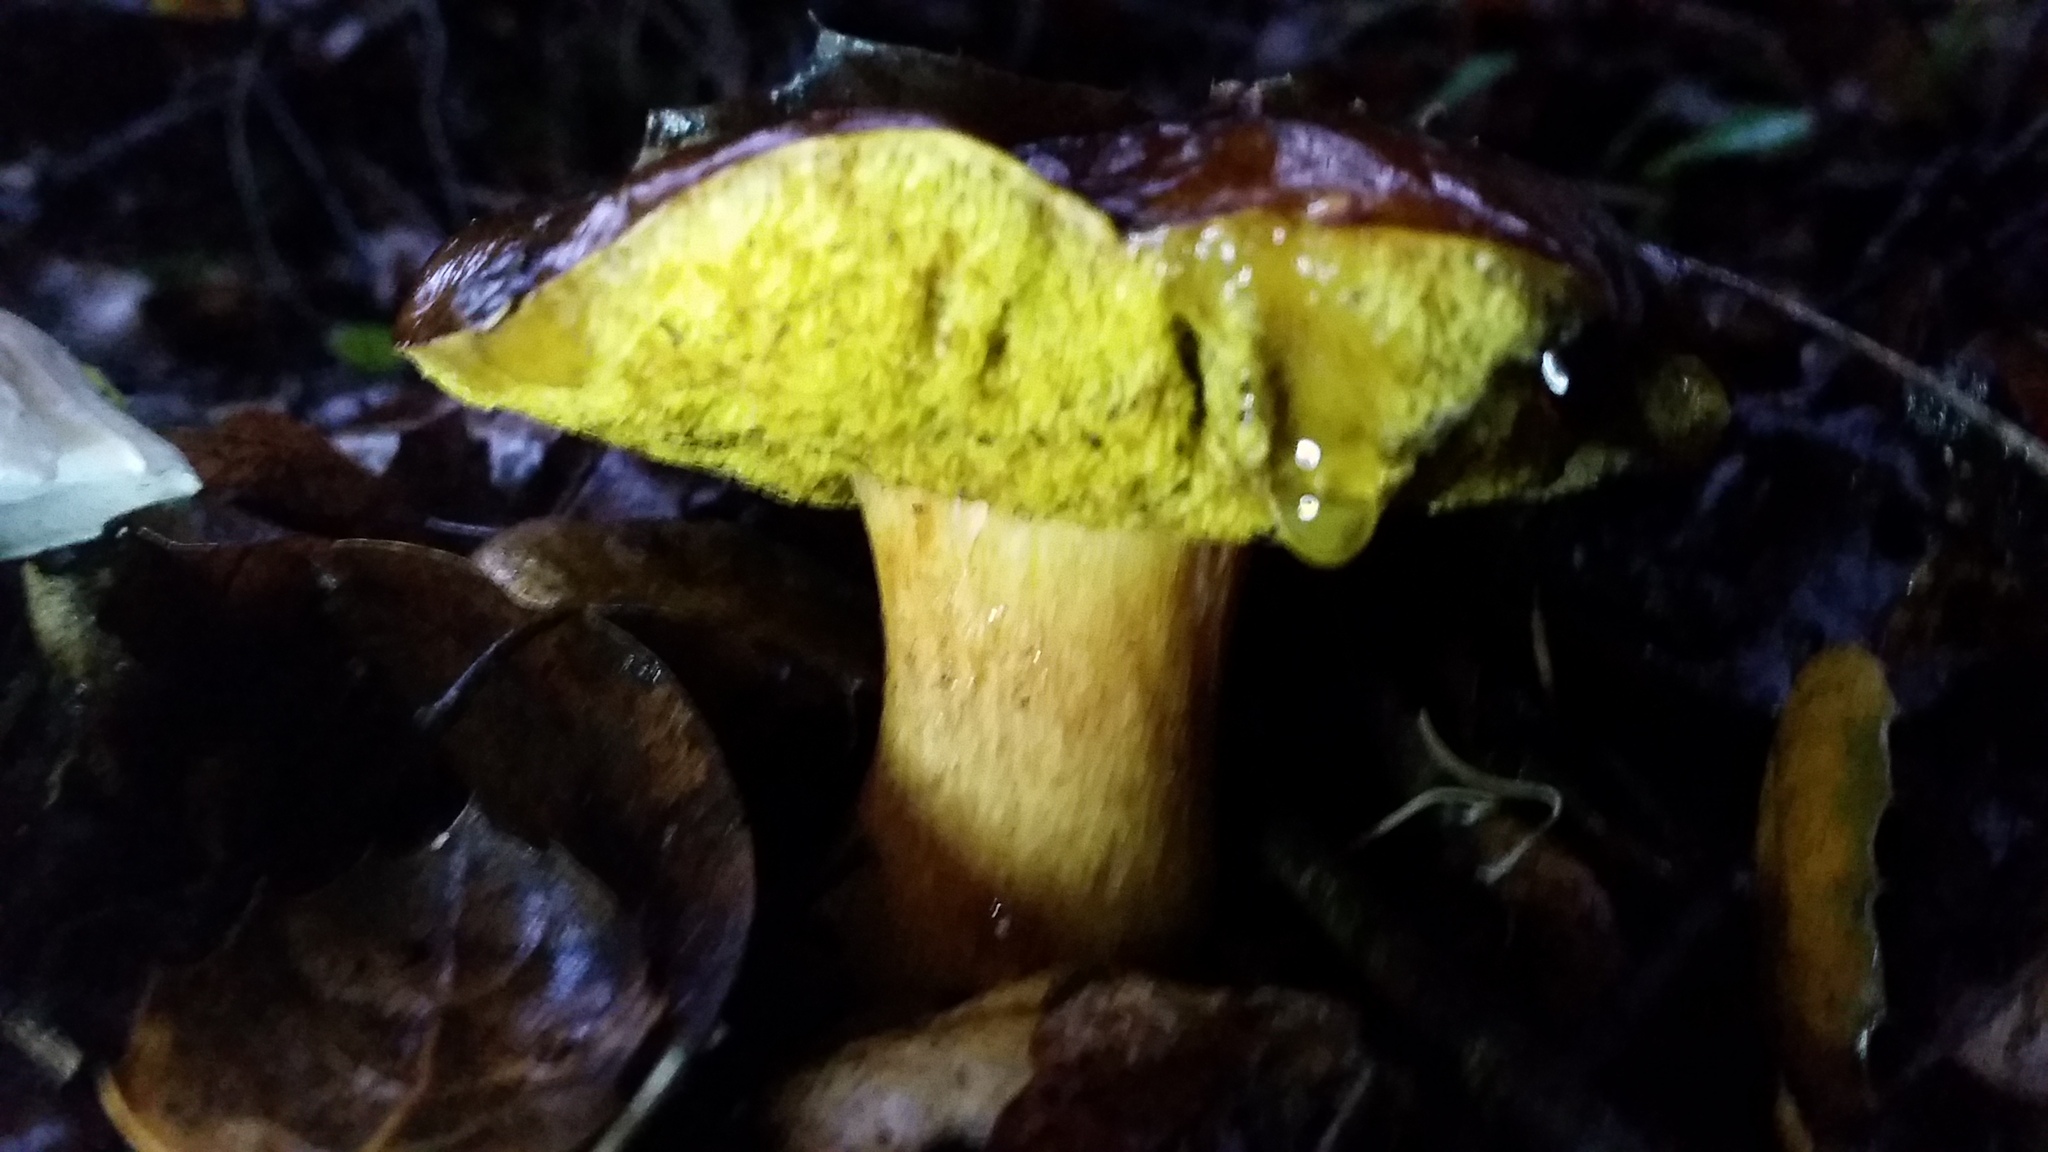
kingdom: Fungi
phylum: Basidiomycota
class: Agaricomycetes
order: Boletales
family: Boletaceae
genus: Xerocomus
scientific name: Xerocomus subtomentosus
